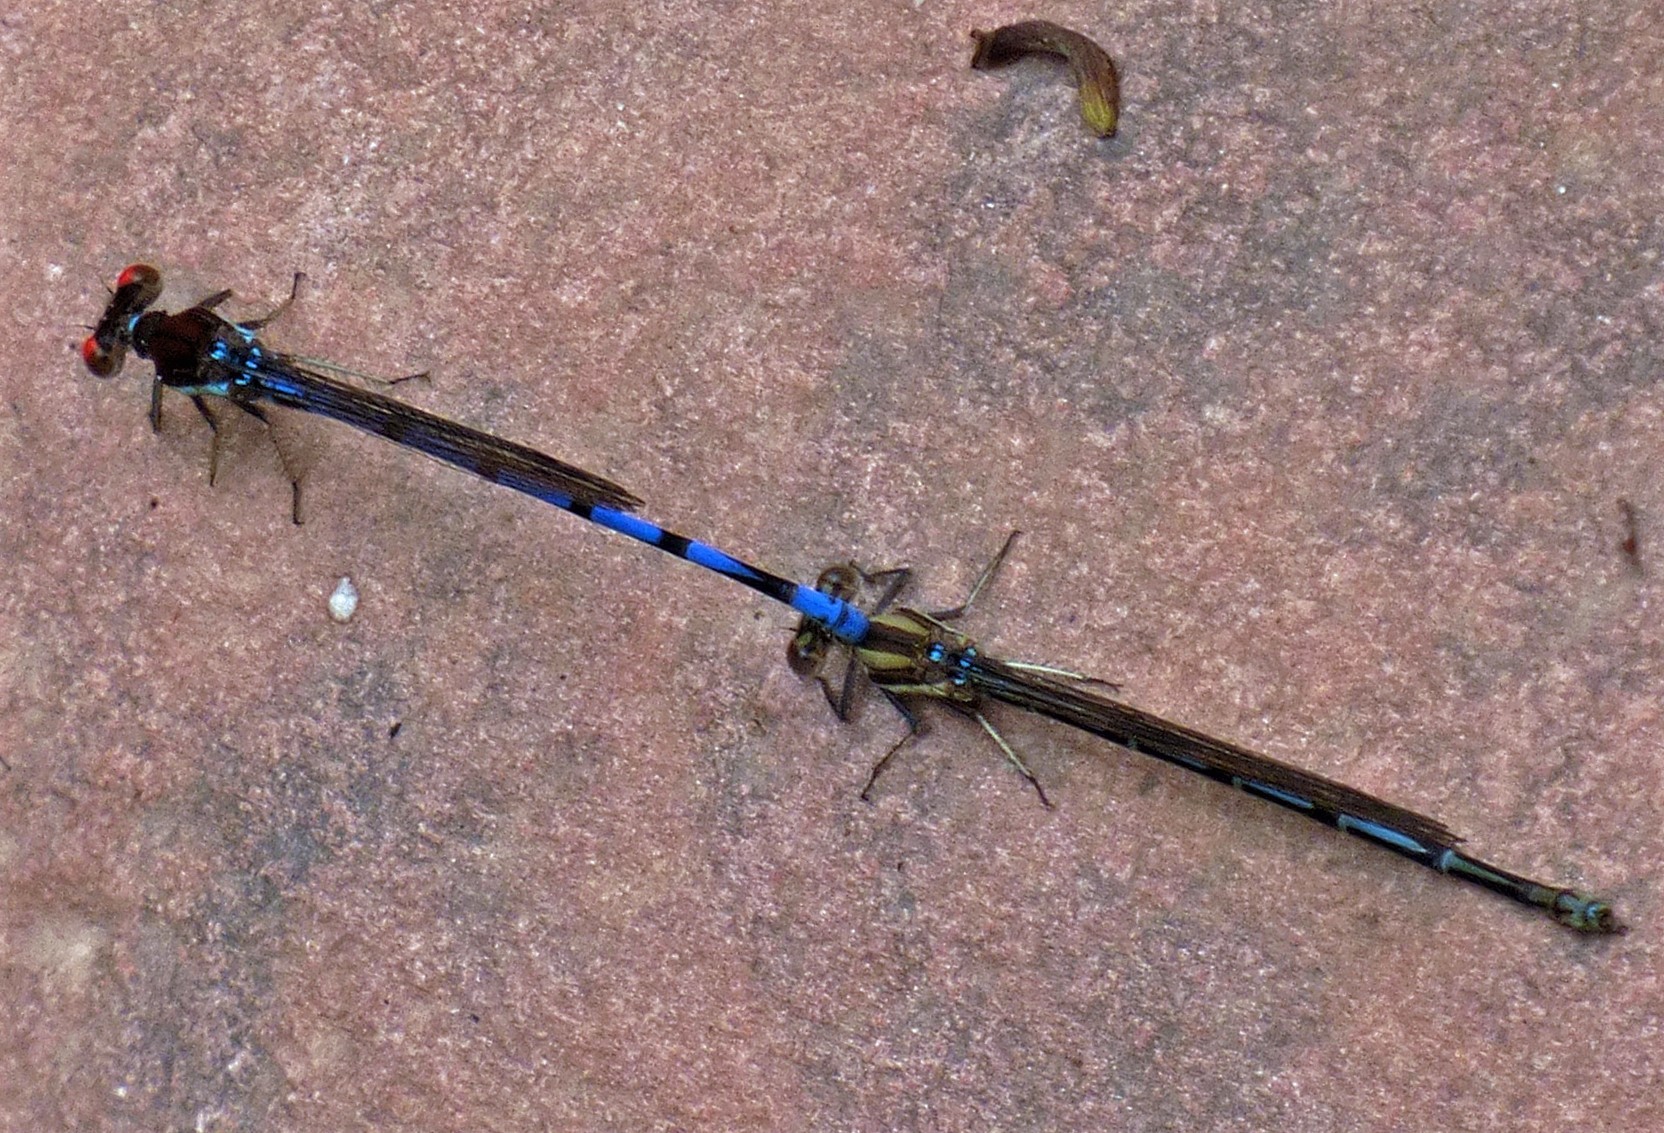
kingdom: Animalia
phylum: Arthropoda
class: Insecta
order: Odonata
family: Coenagrionidae
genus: Argia
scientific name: Argia joergenseni
